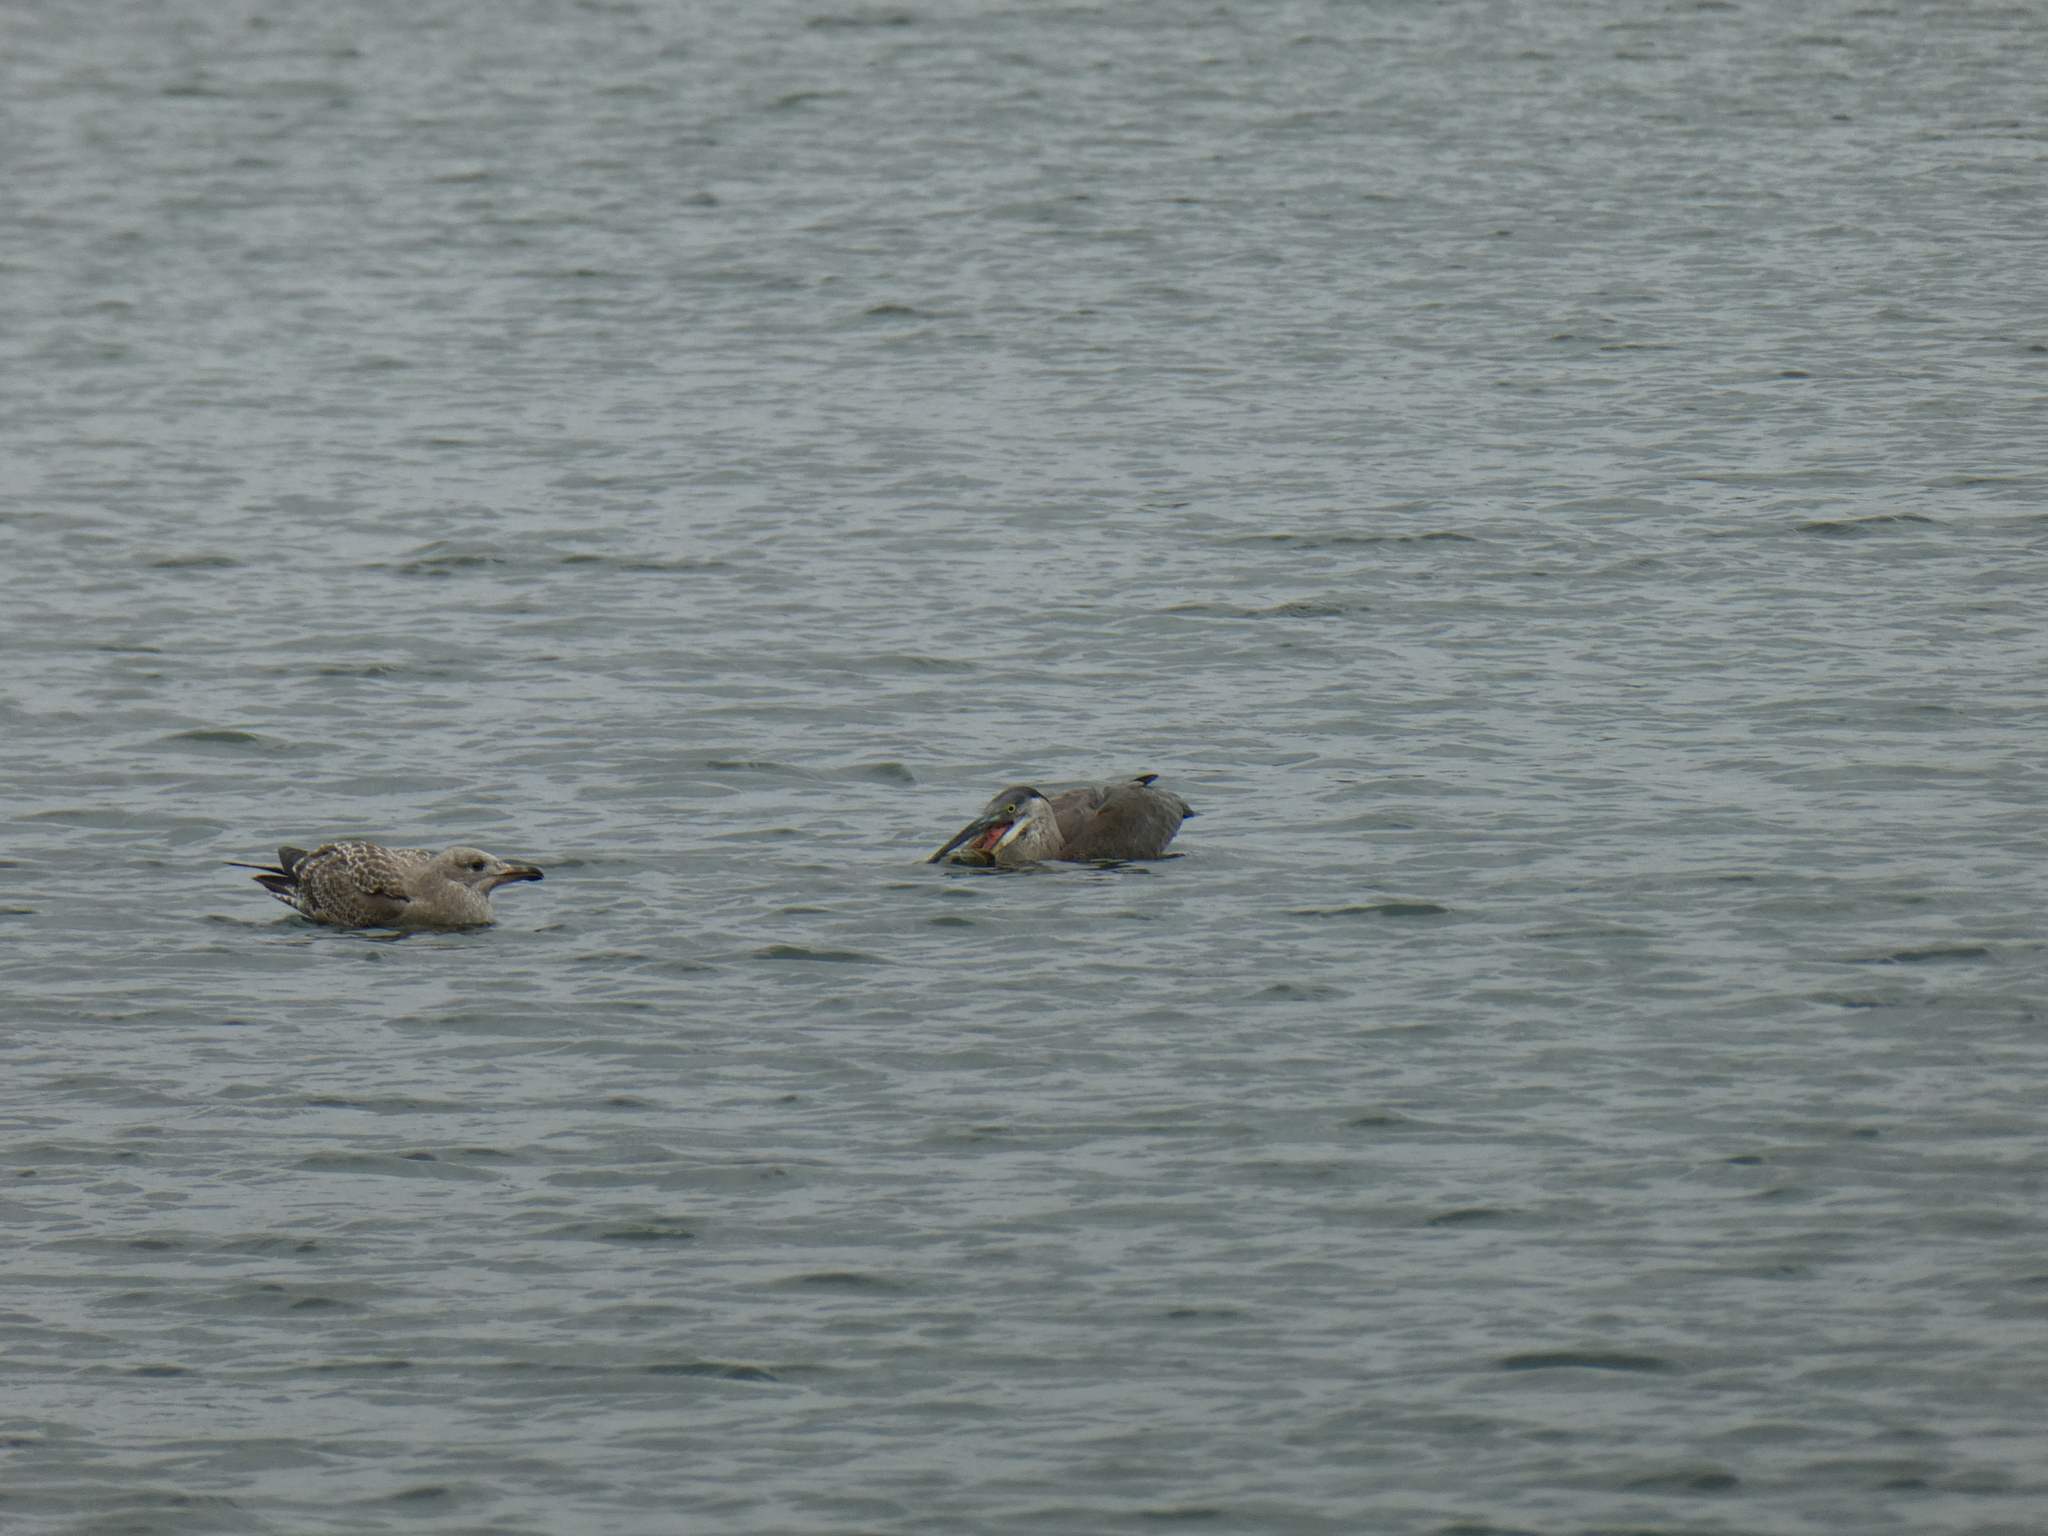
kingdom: Animalia
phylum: Chordata
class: Aves
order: Charadriiformes
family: Laridae
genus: Larus
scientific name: Larus argentatus
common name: Herring gull
